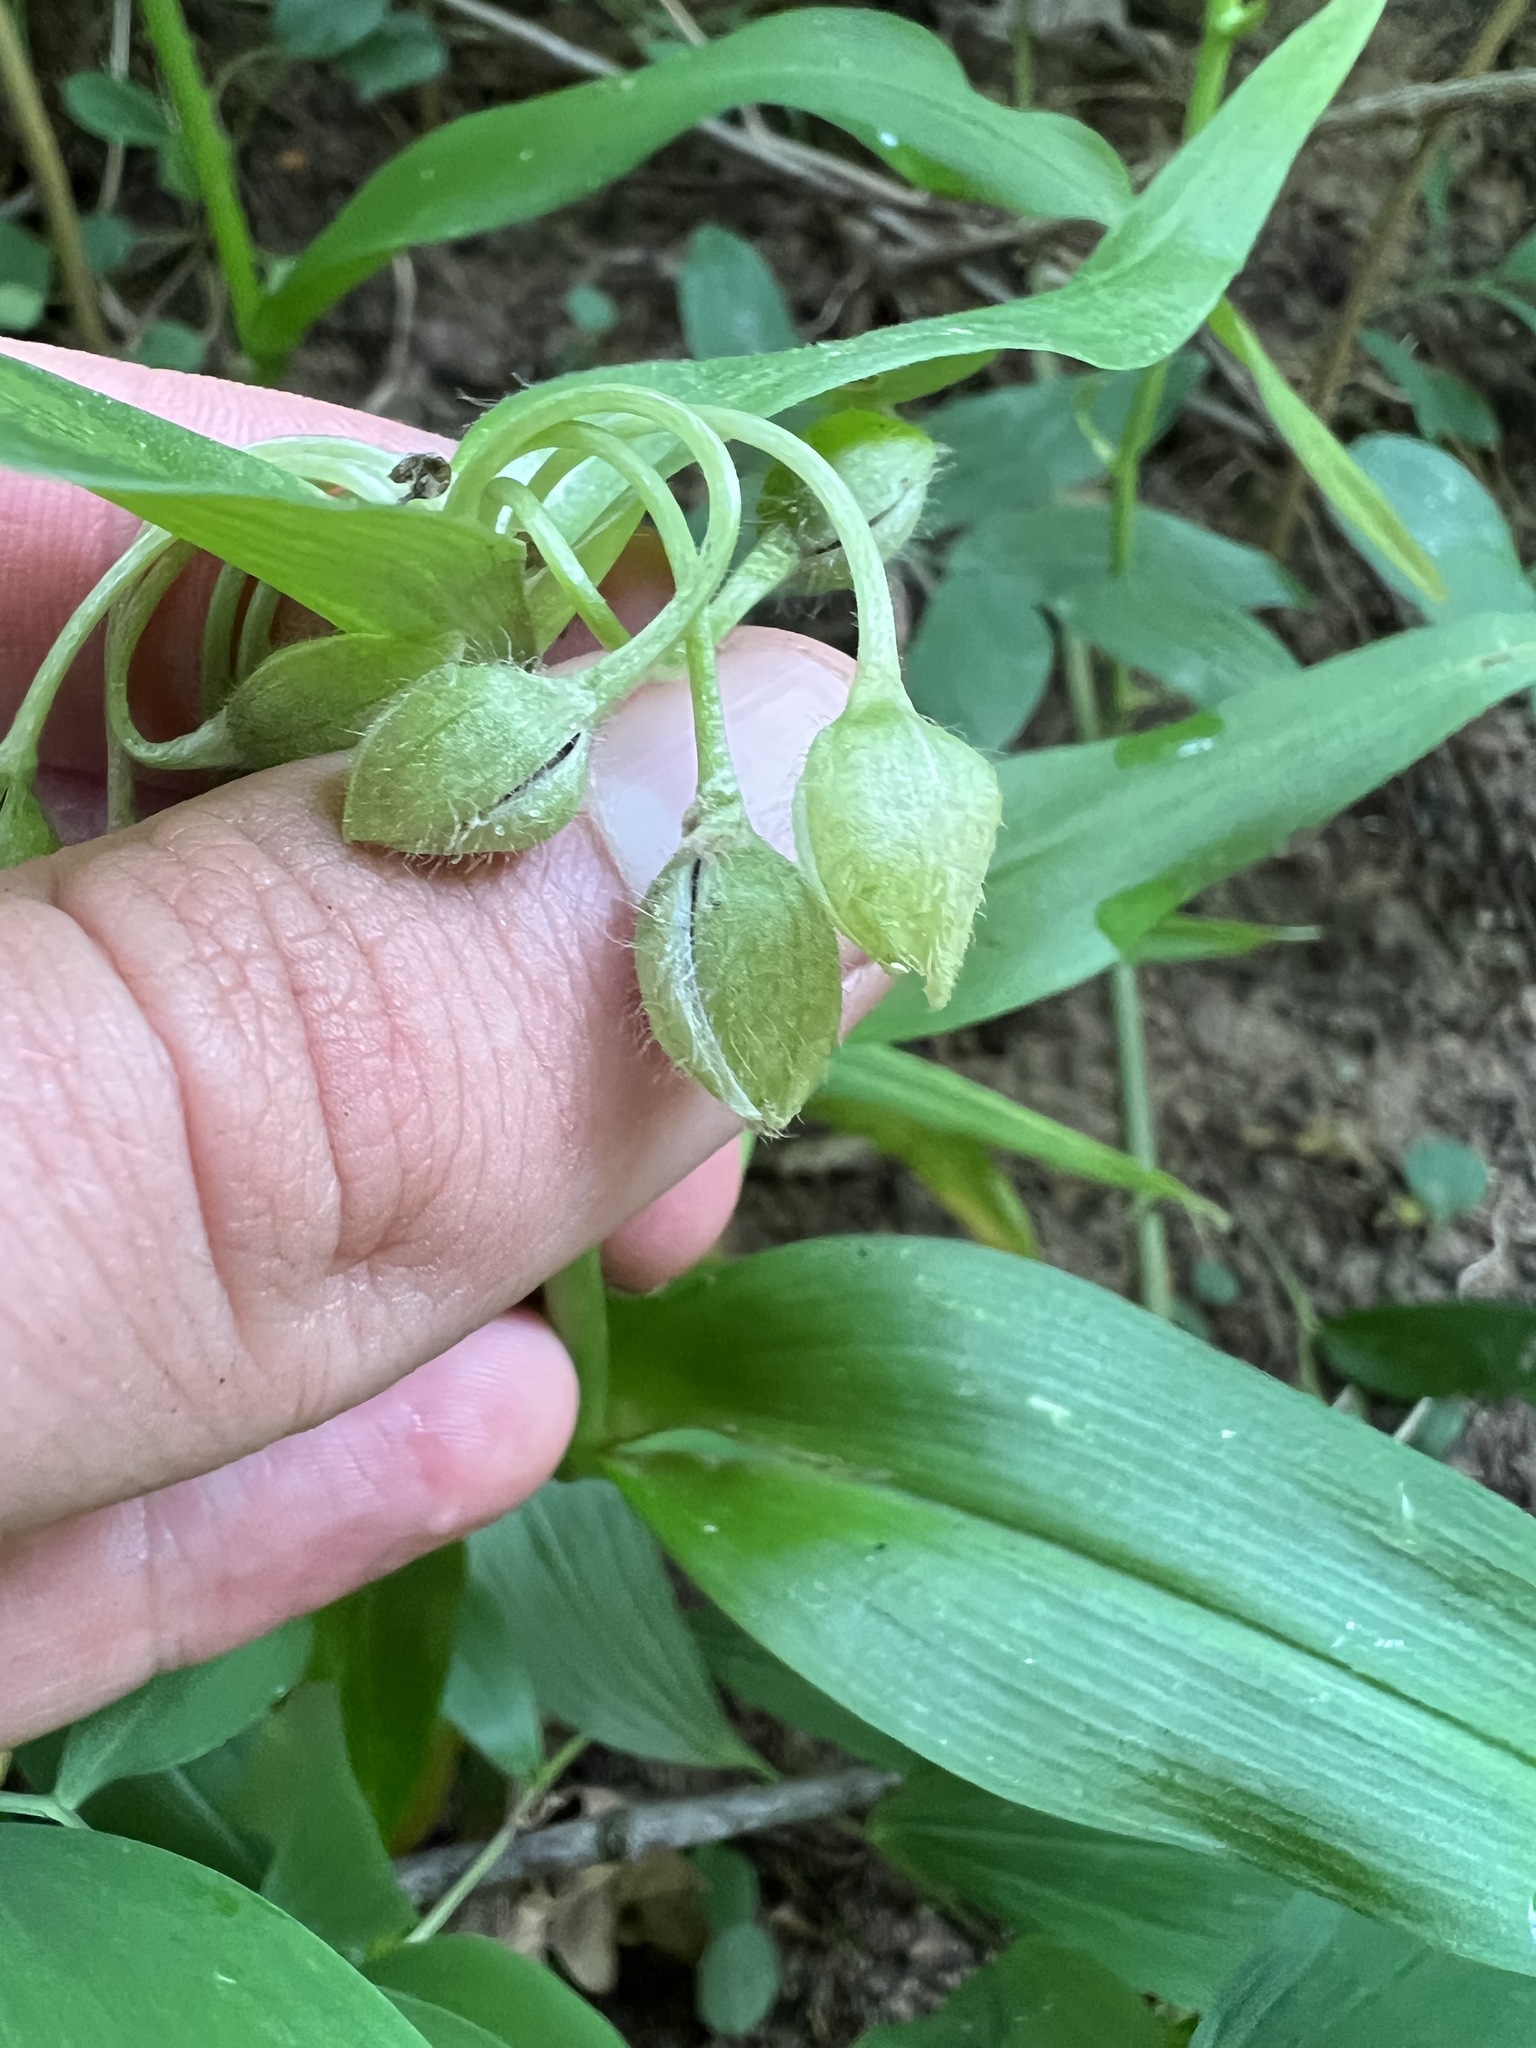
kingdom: Plantae
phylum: Tracheophyta
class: Liliopsida
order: Commelinales
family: Commelinaceae
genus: Tradescantia
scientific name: Tradescantia subaspera
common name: Wide-leaf spiderwort
